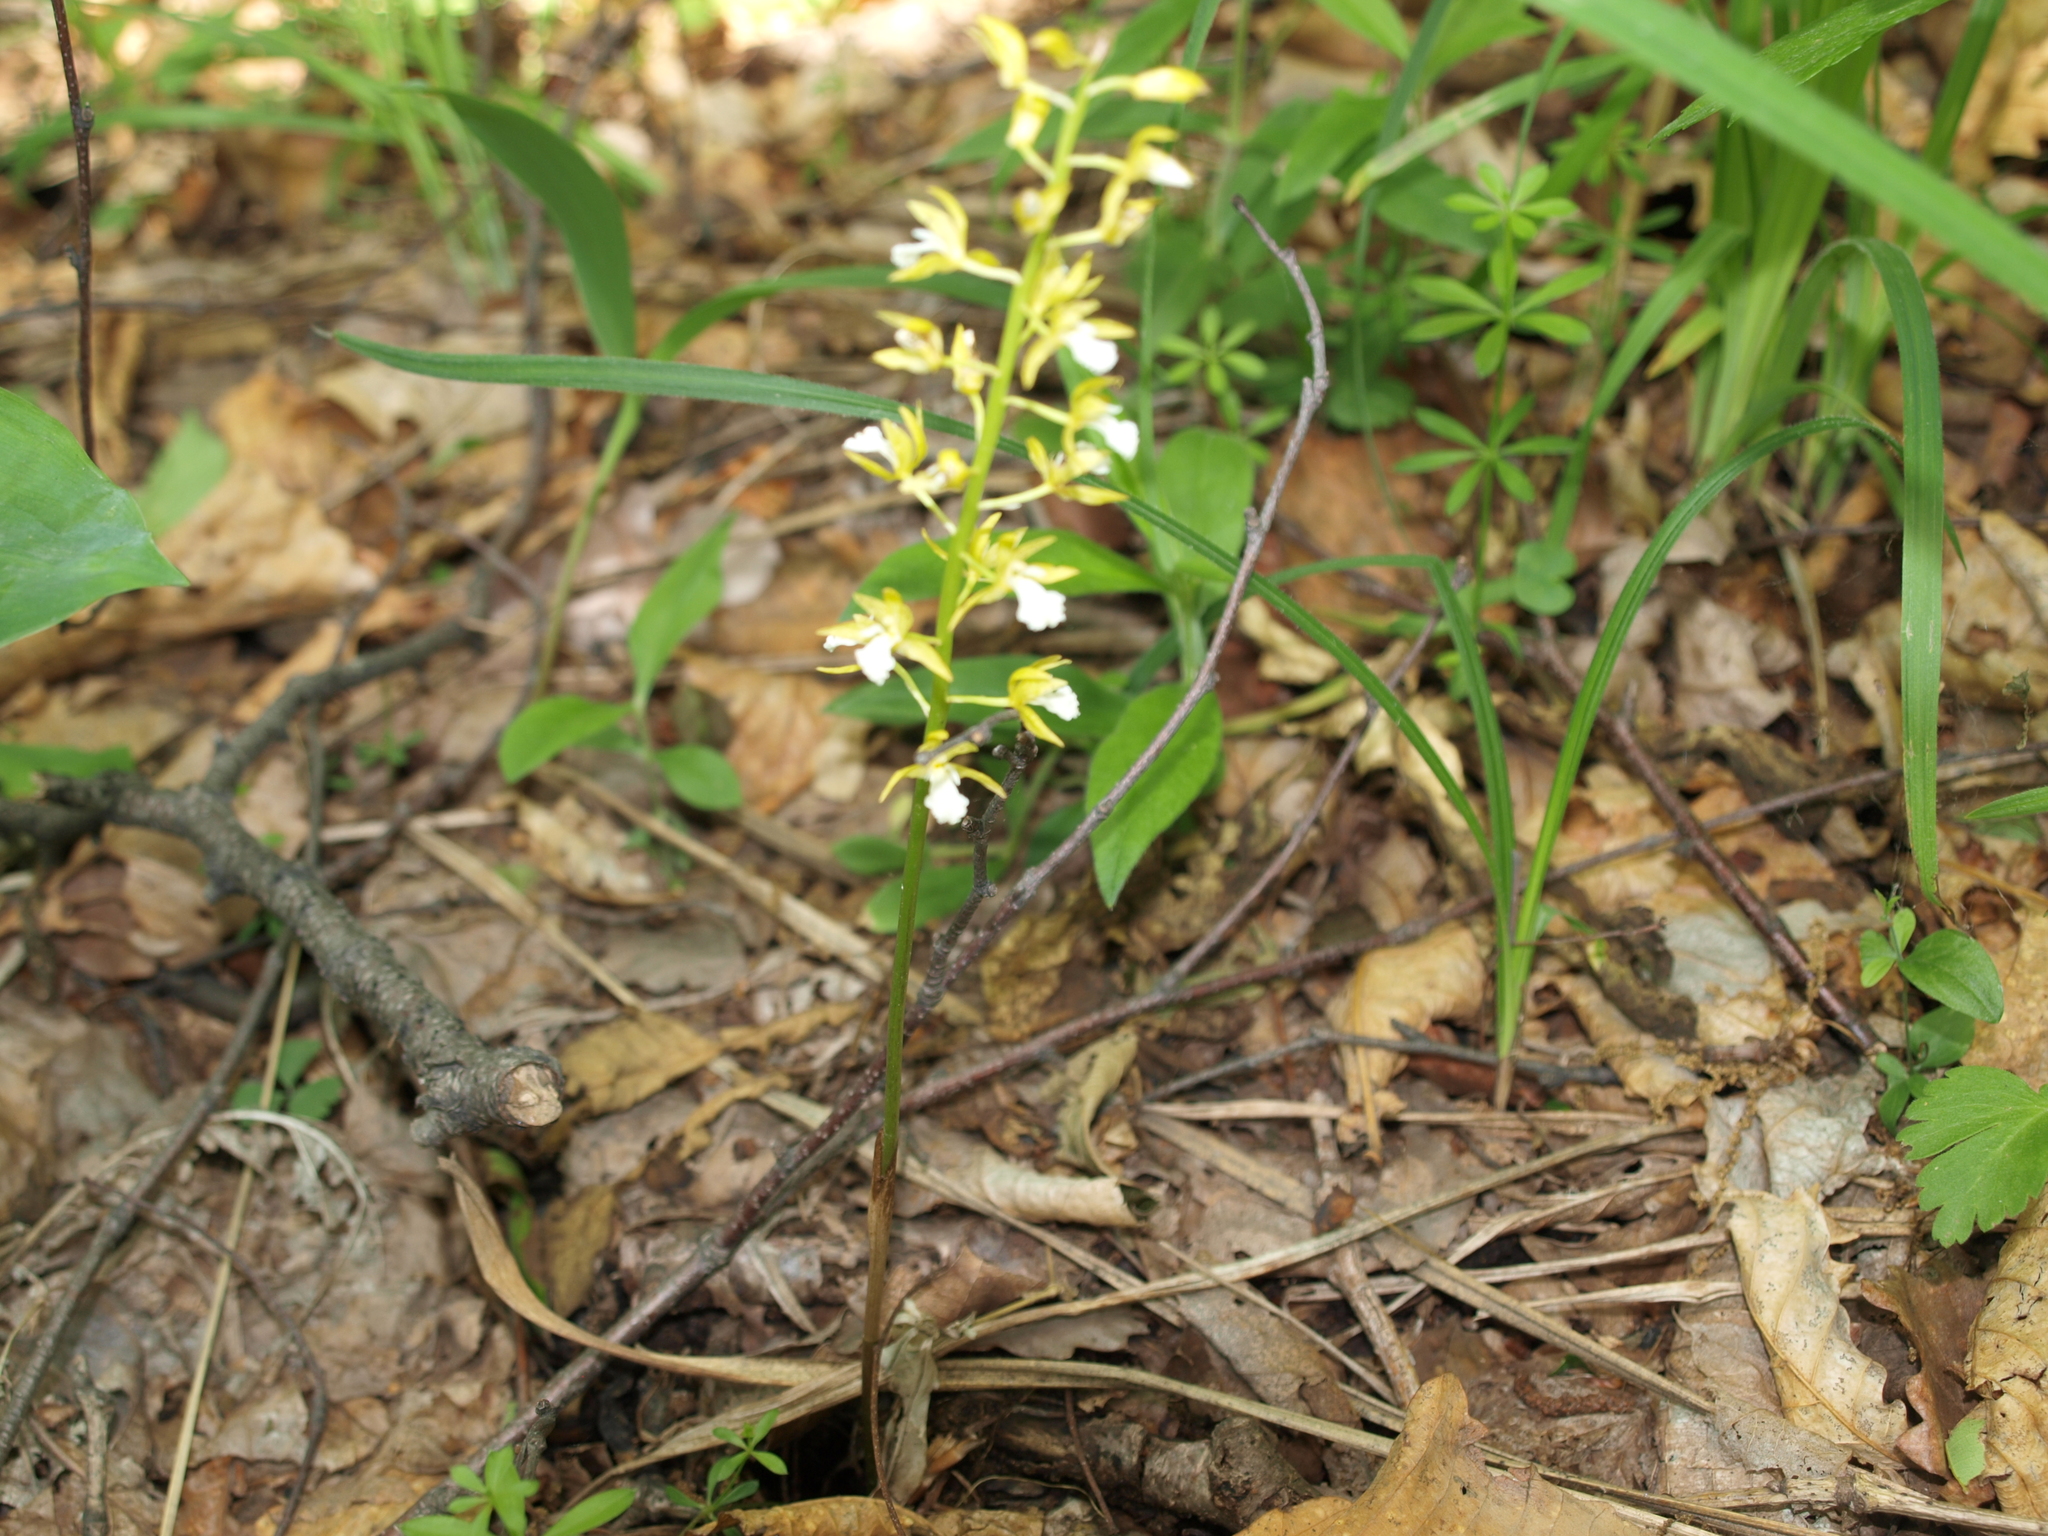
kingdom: Plantae
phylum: Tracheophyta
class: Liliopsida
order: Asparagales
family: Orchidaceae
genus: Oreorchis
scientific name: Oreorchis patens
